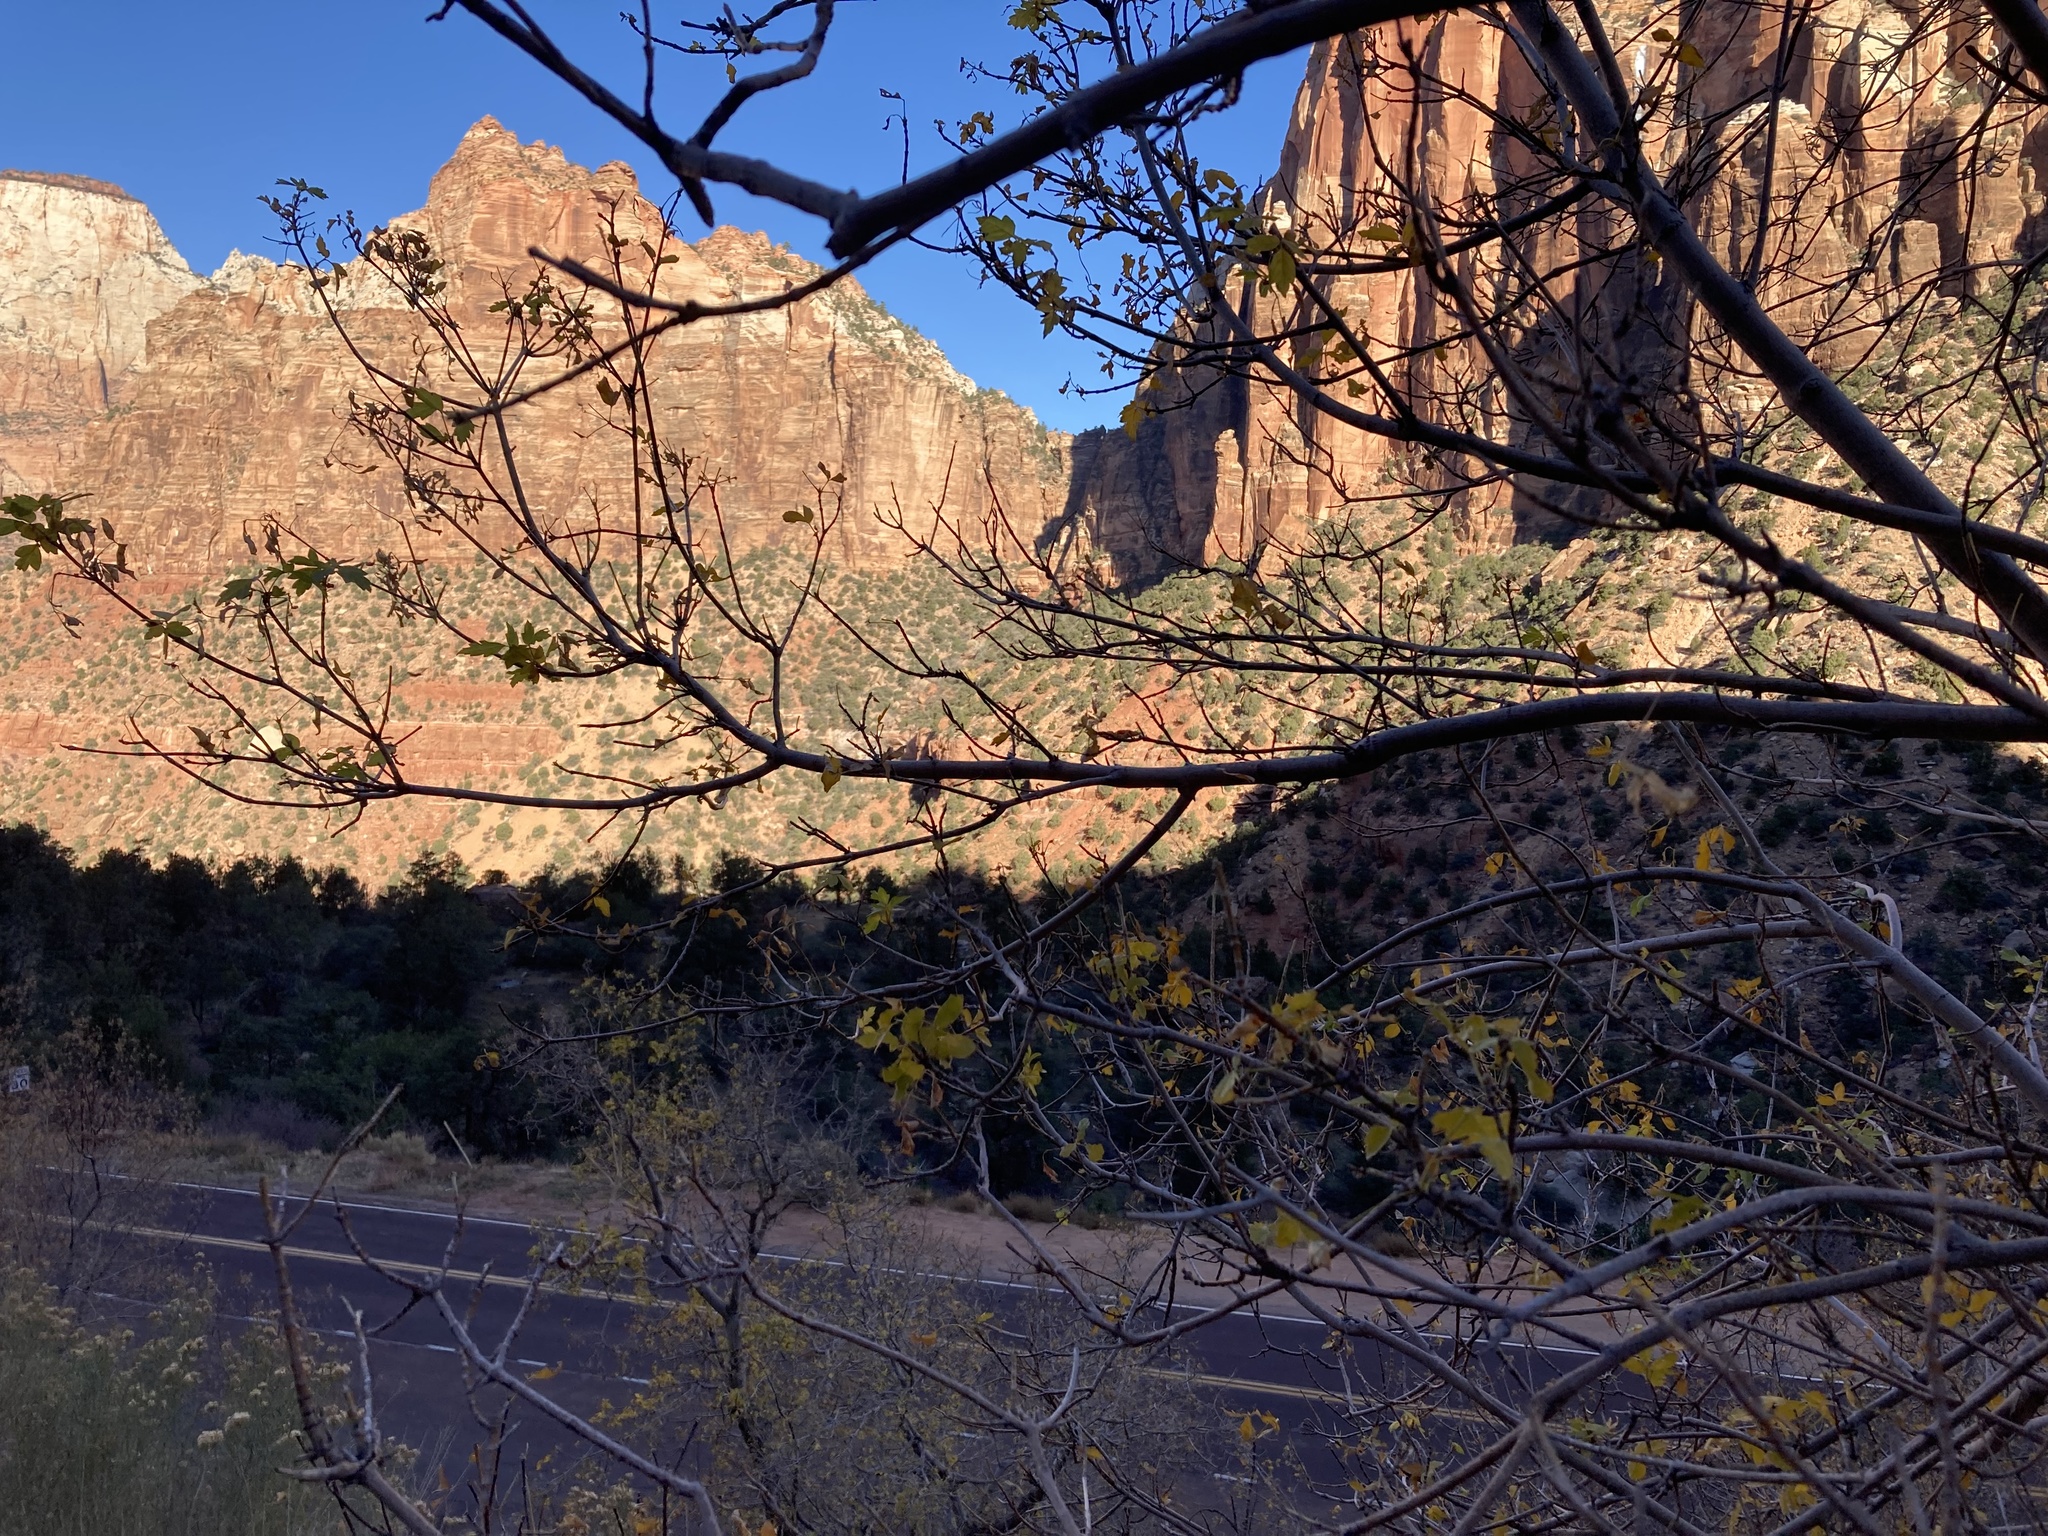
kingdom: Plantae
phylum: Tracheophyta
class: Magnoliopsida
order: Sapindales
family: Sapindaceae
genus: Acer
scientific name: Acer negundo
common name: Ashleaf maple
